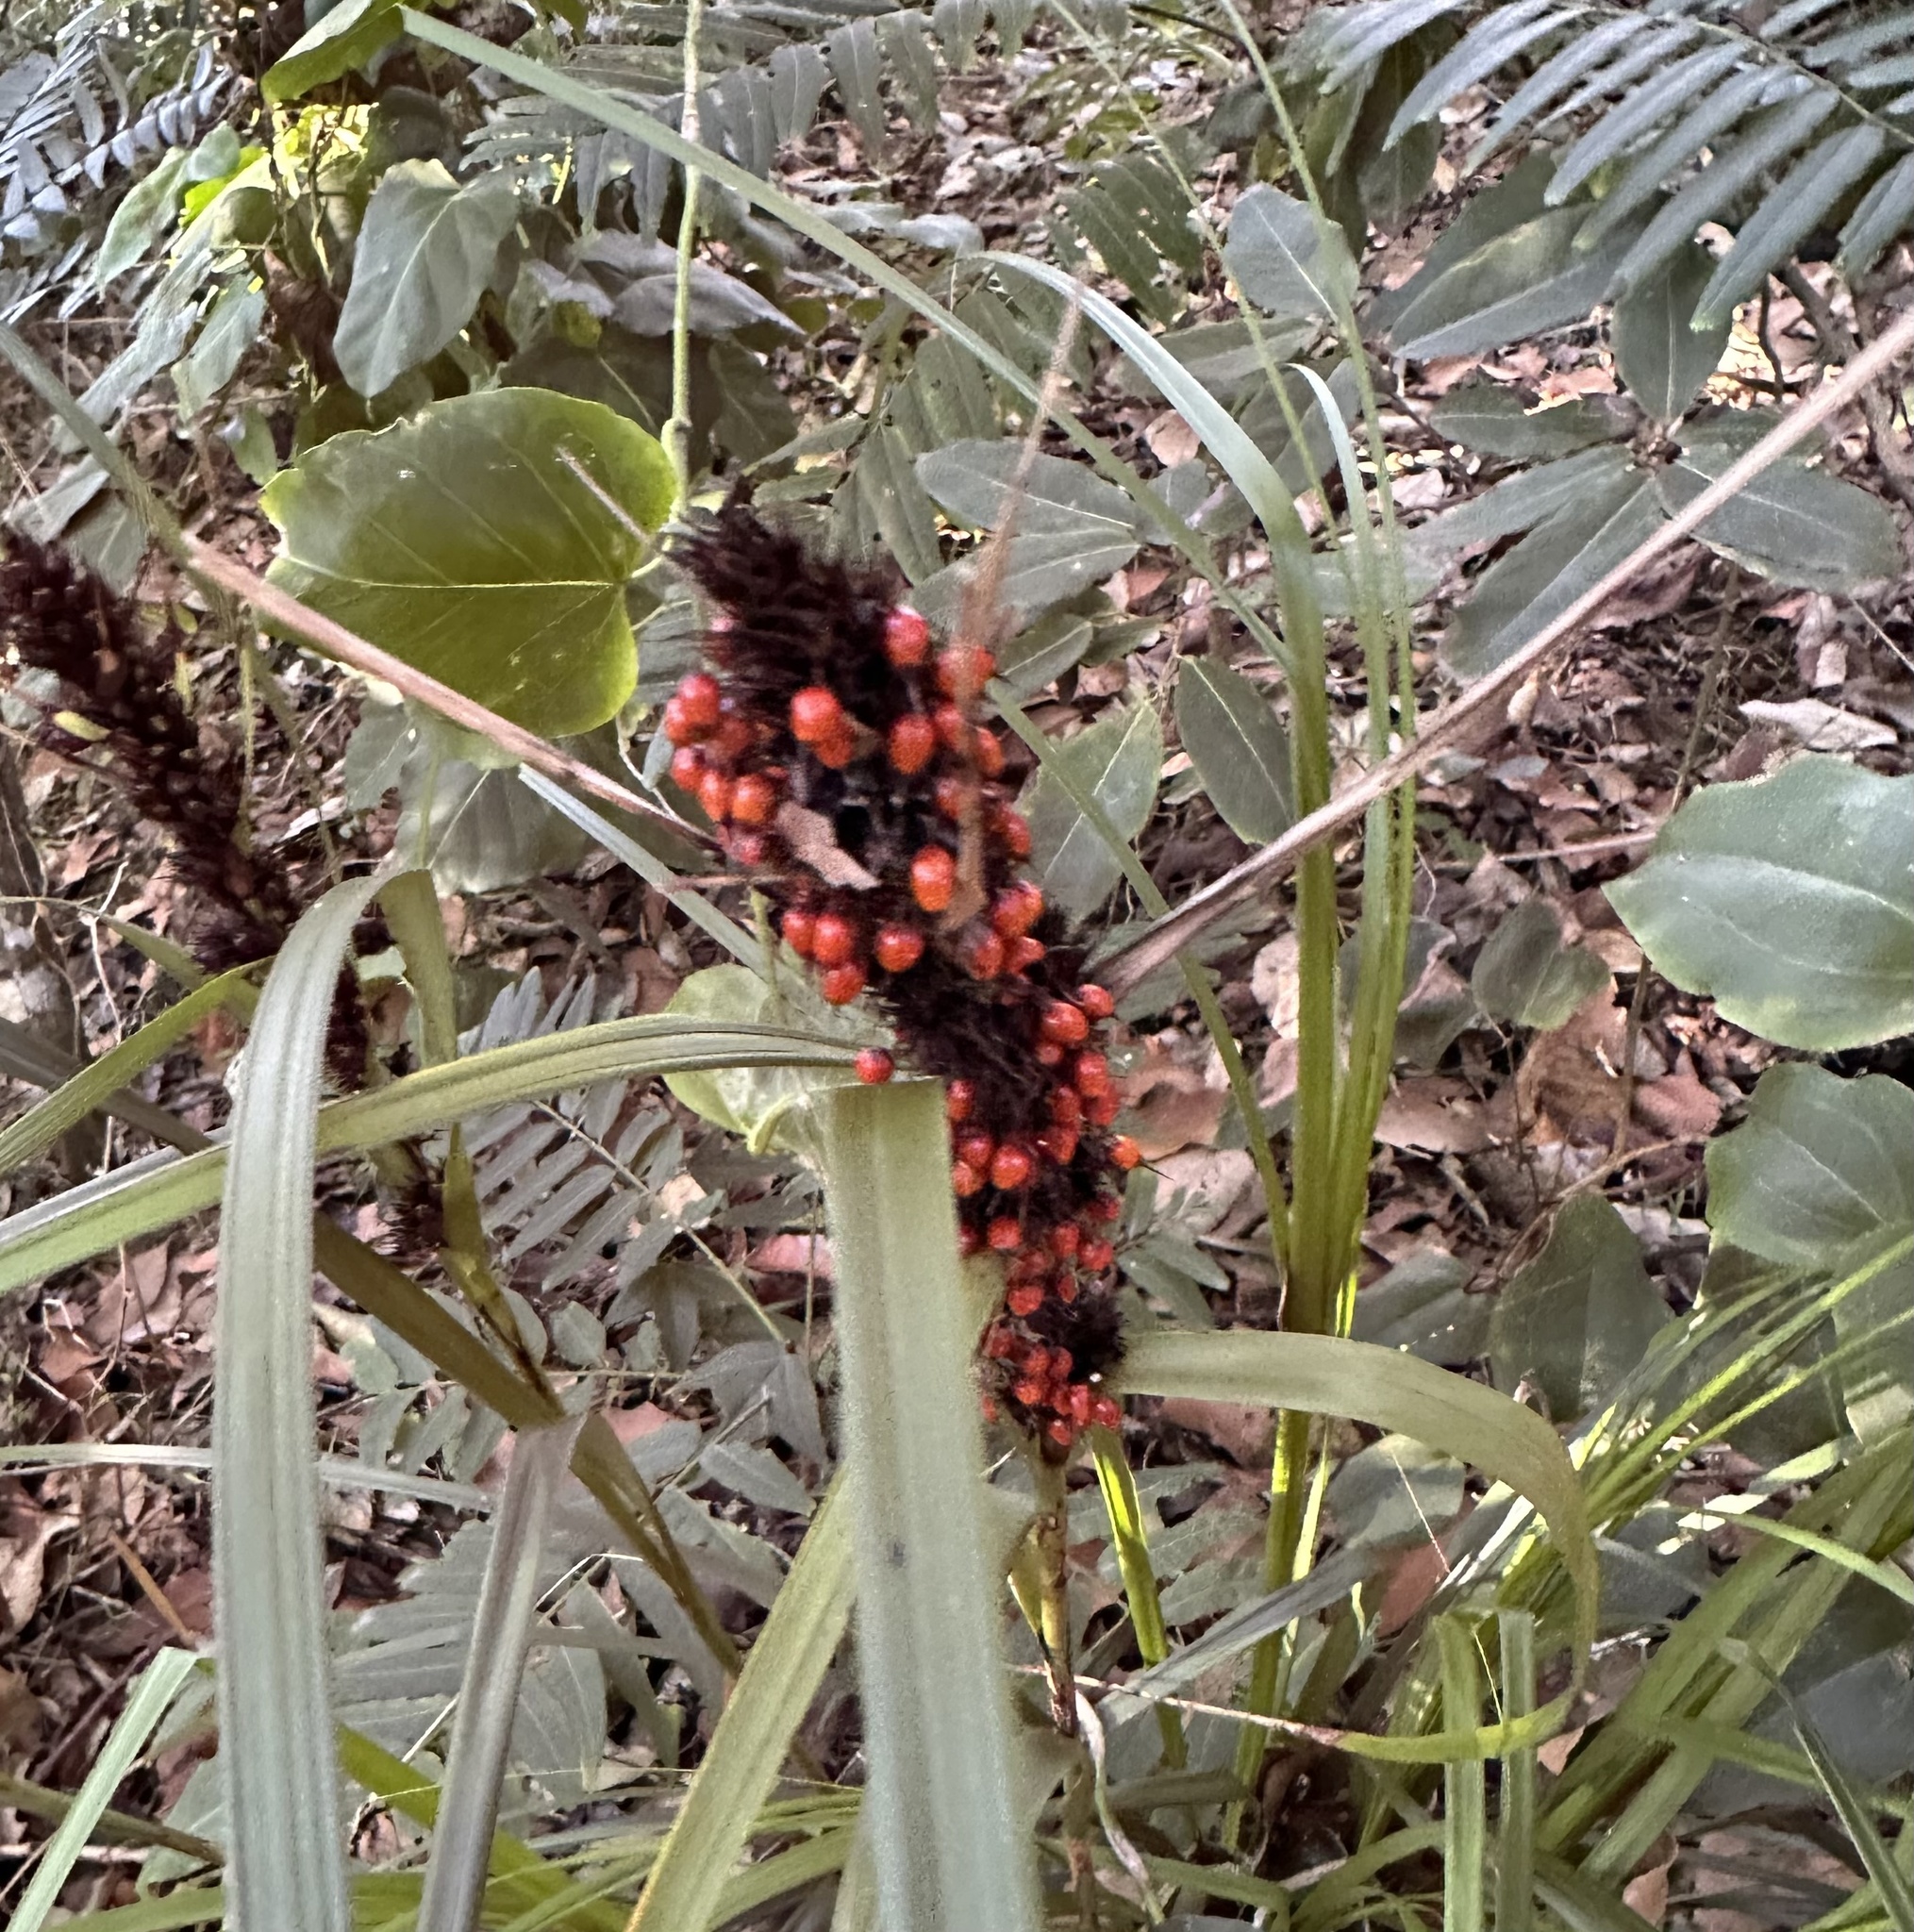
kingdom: Plantae
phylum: Tracheophyta
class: Liliopsida
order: Poales
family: Cyperaceae
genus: Gahnia
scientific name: Gahnia aspera
